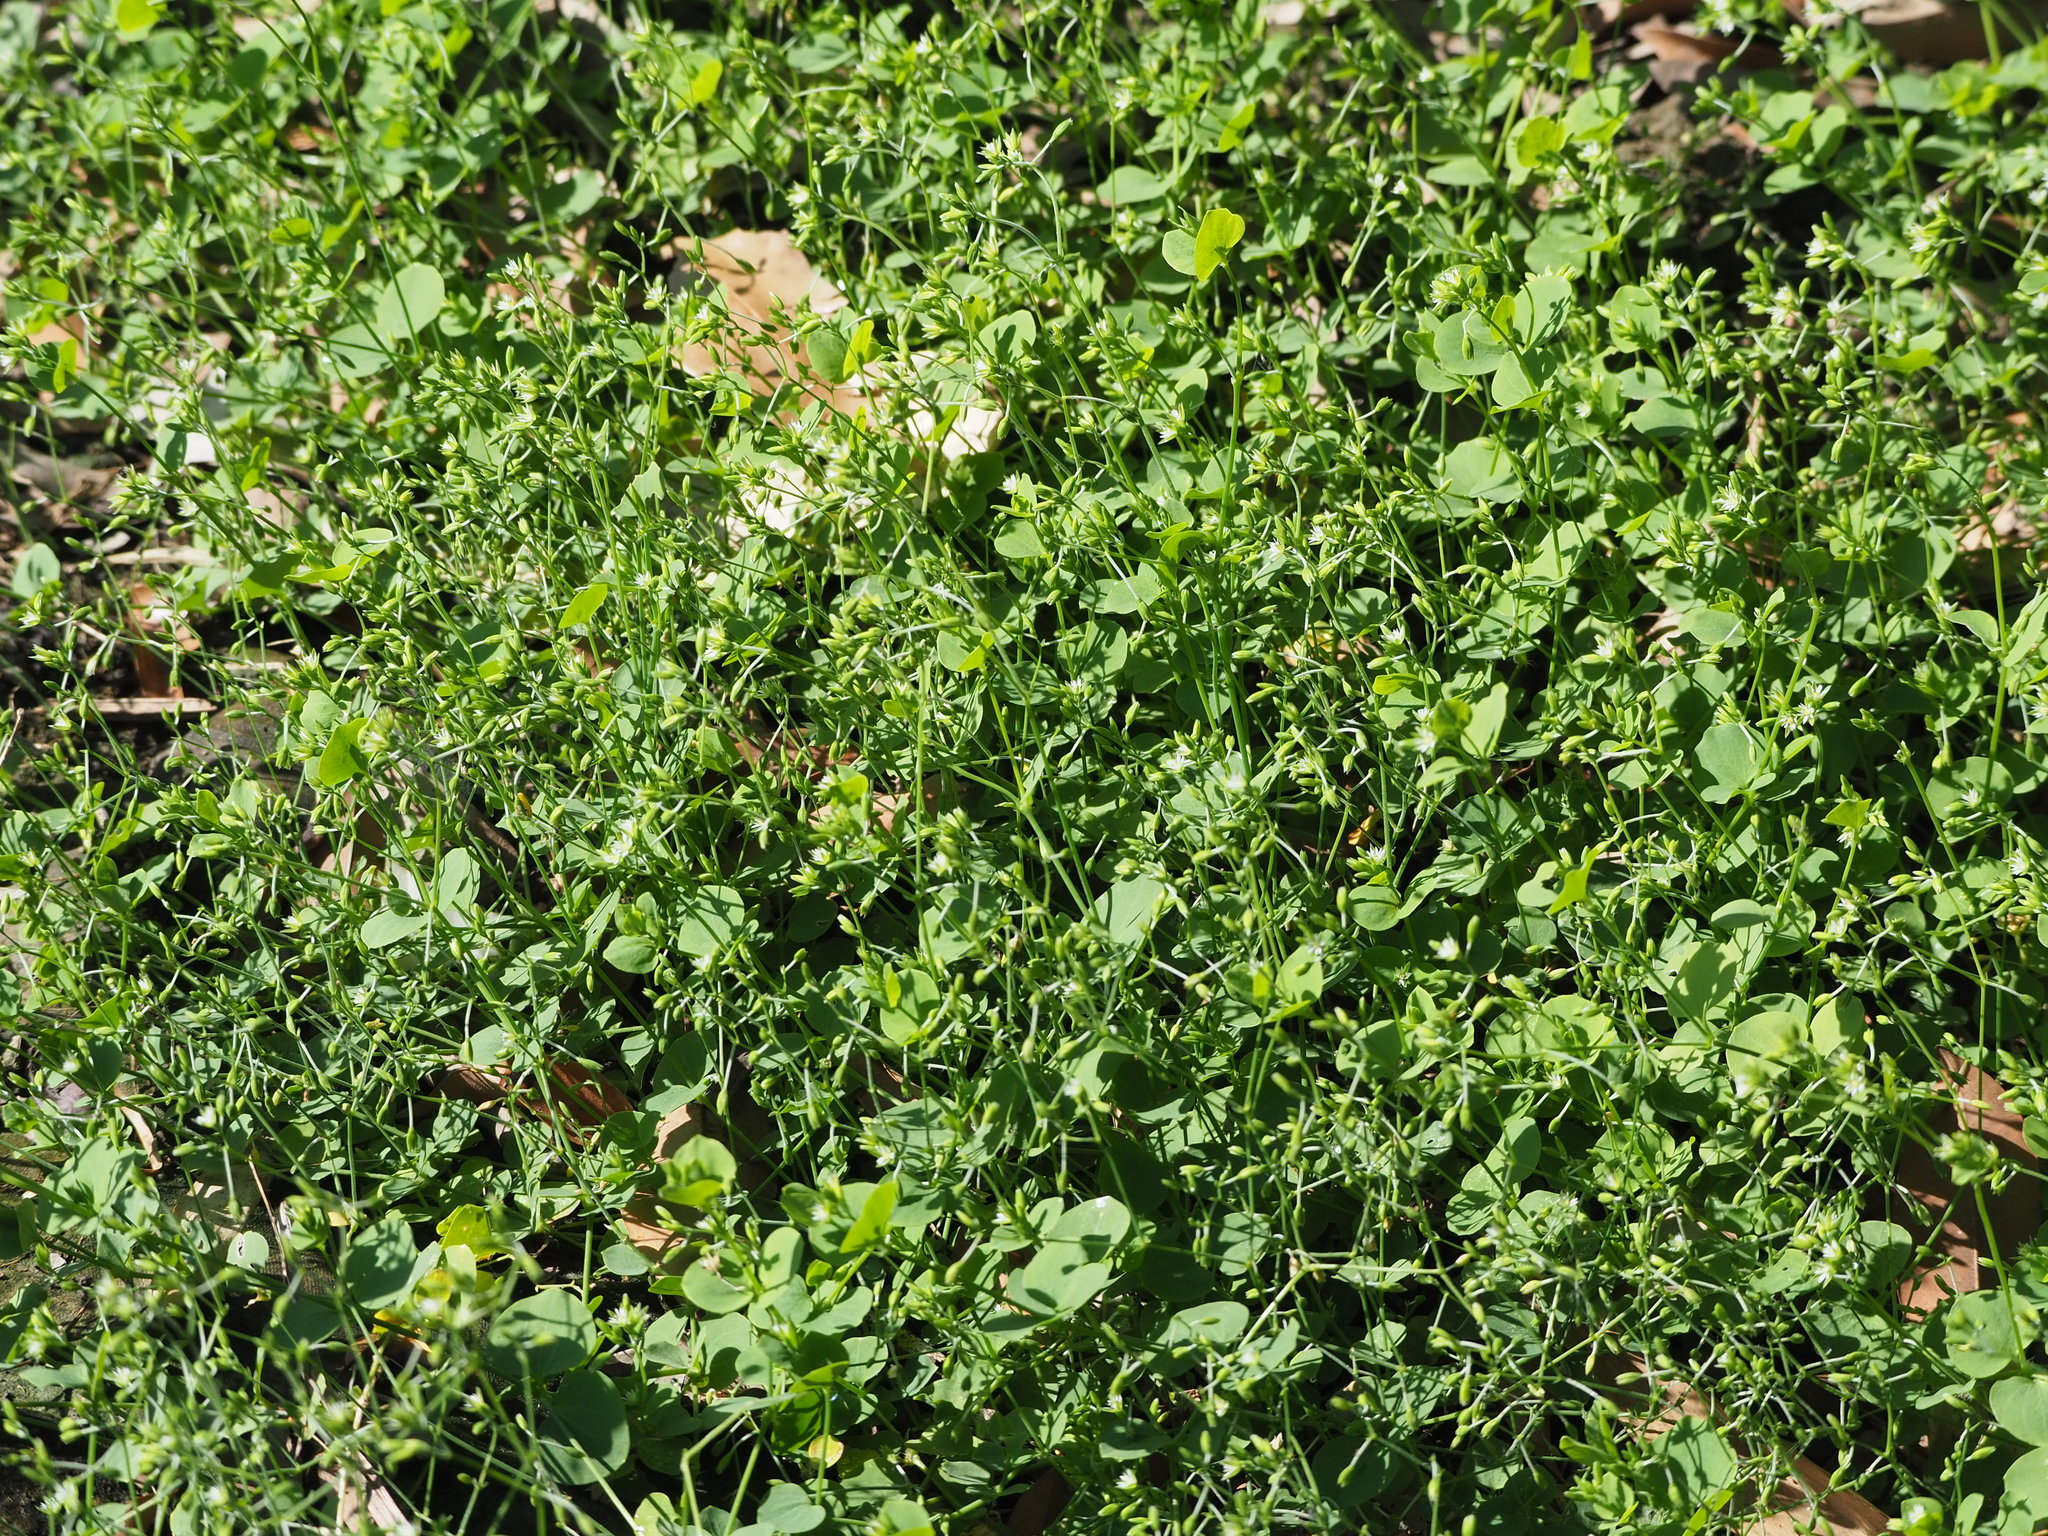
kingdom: Plantae
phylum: Tracheophyta
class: Magnoliopsida
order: Caryophyllales
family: Caryophyllaceae
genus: Drymaria
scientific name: Drymaria cordata
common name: Whitesnow
